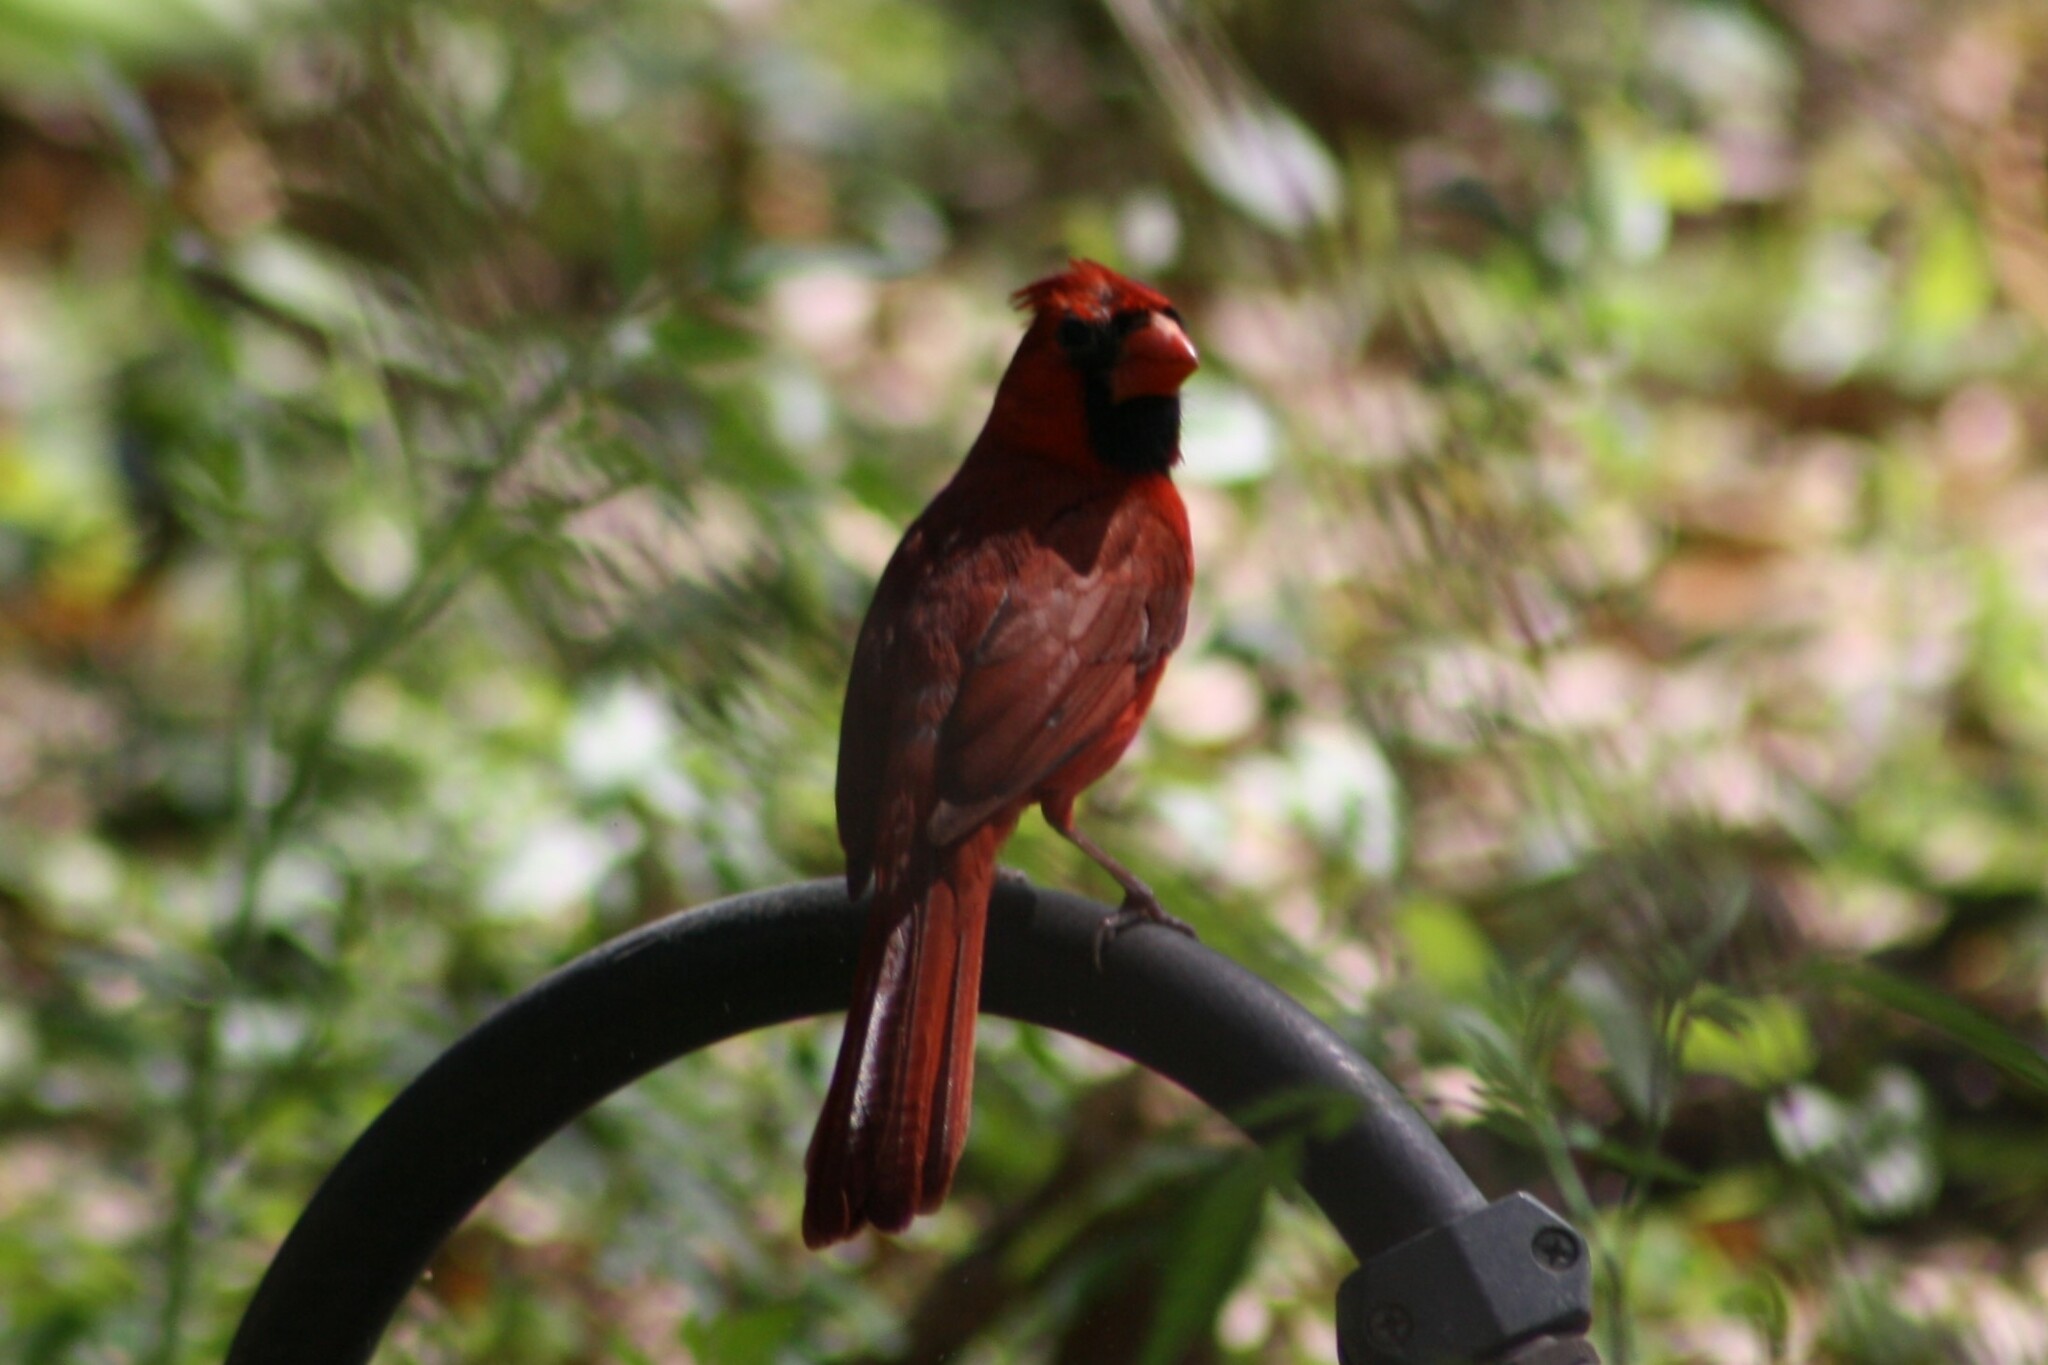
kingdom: Animalia
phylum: Chordata
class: Aves
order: Passeriformes
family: Cardinalidae
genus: Cardinalis
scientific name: Cardinalis cardinalis
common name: Northern cardinal
